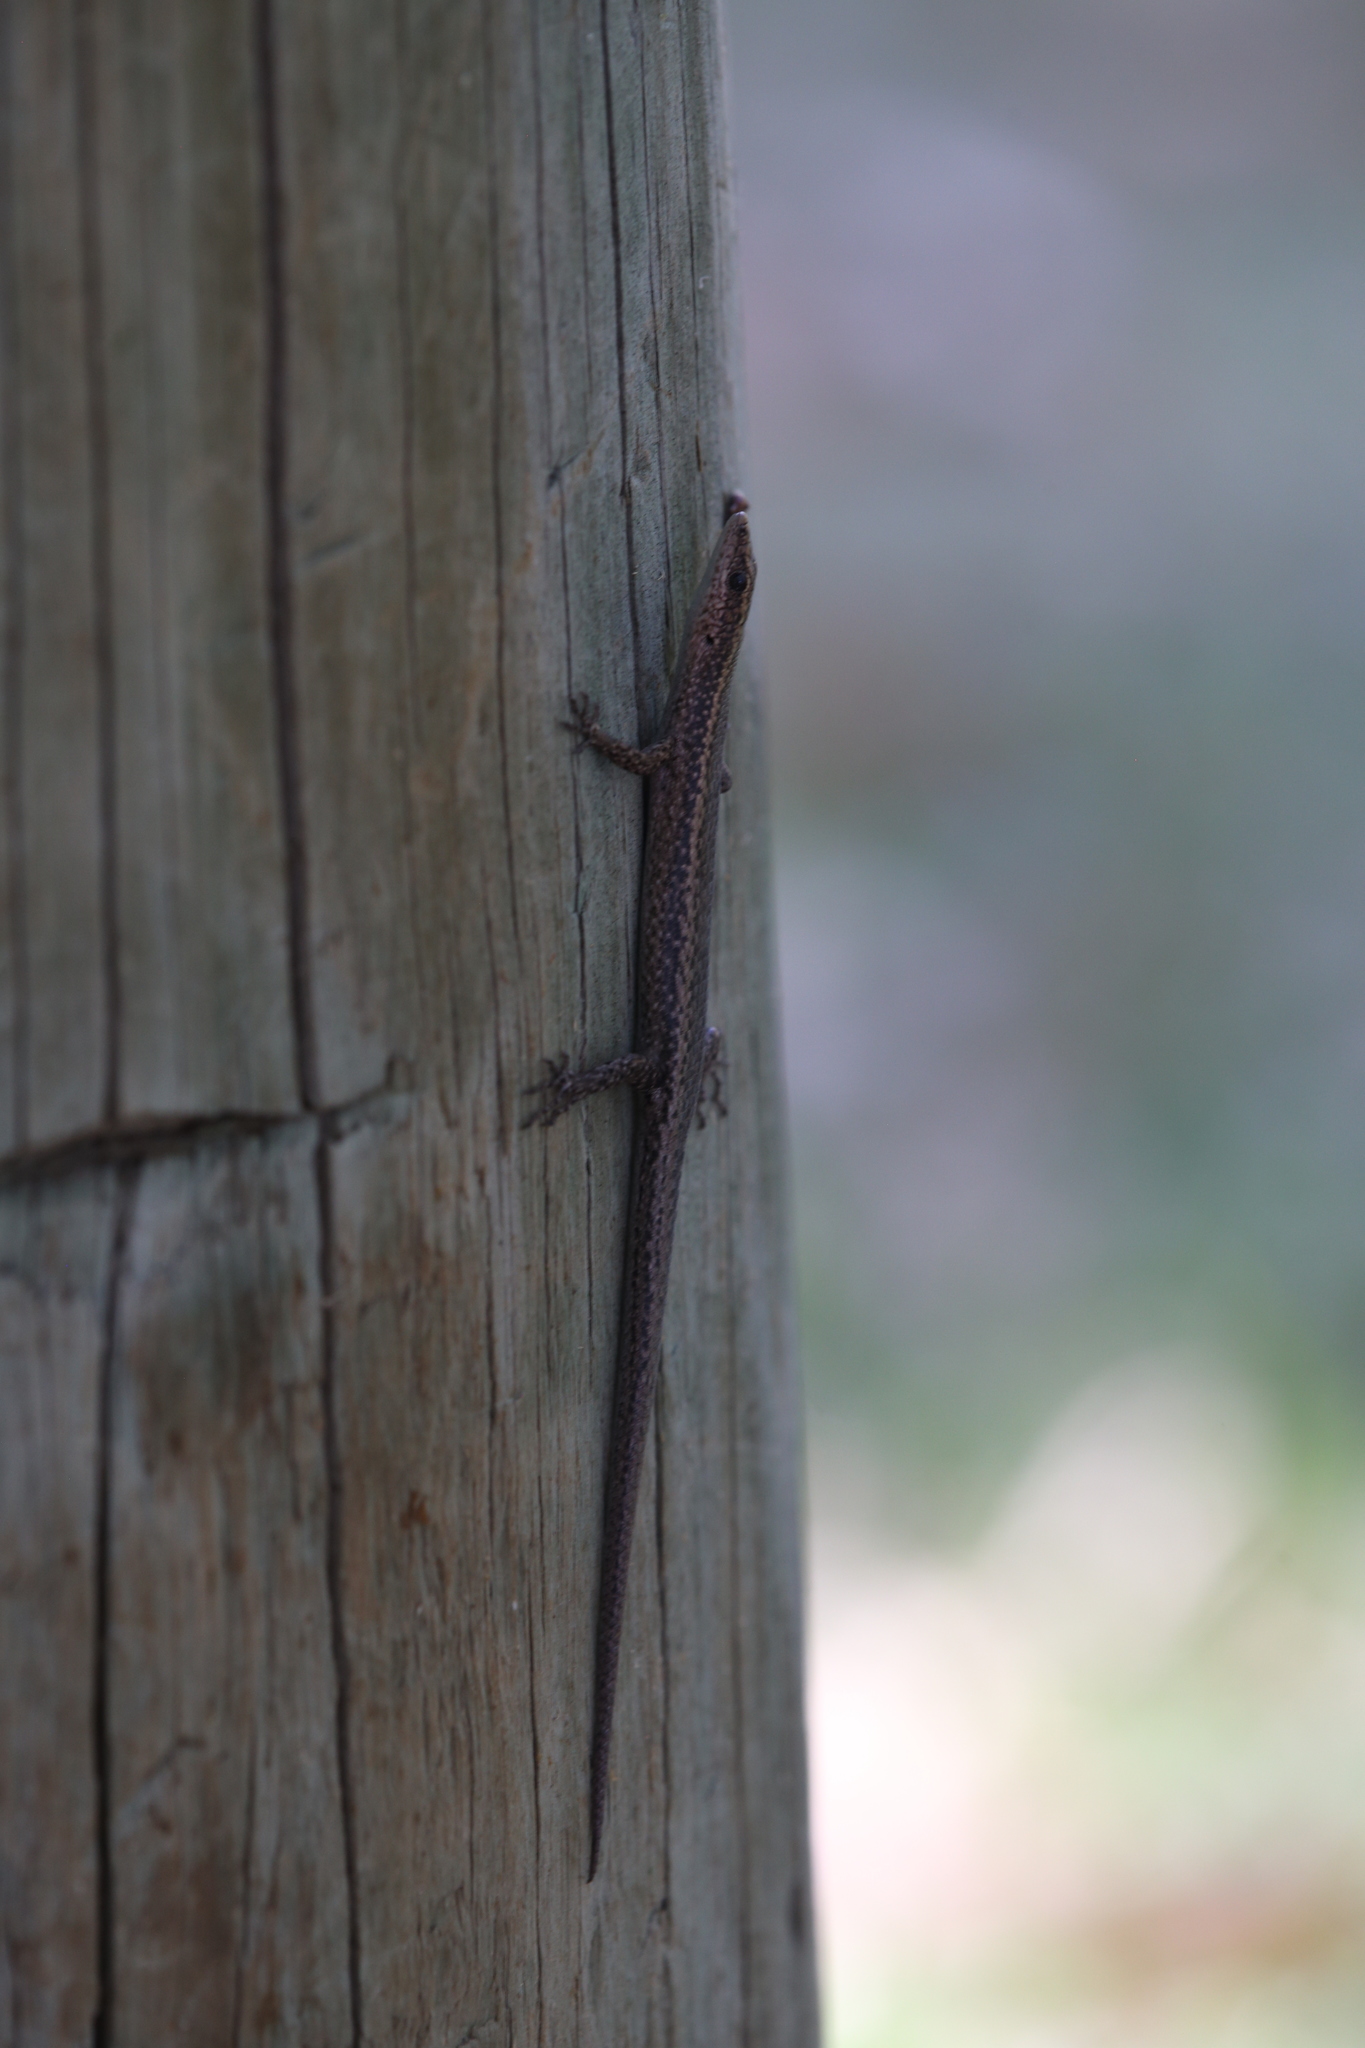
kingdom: Animalia
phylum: Chordata
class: Squamata
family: Scincidae
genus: Cryptoblepharus
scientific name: Cryptoblepharus buchananii
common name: Buchanan's snake-eyed skink
